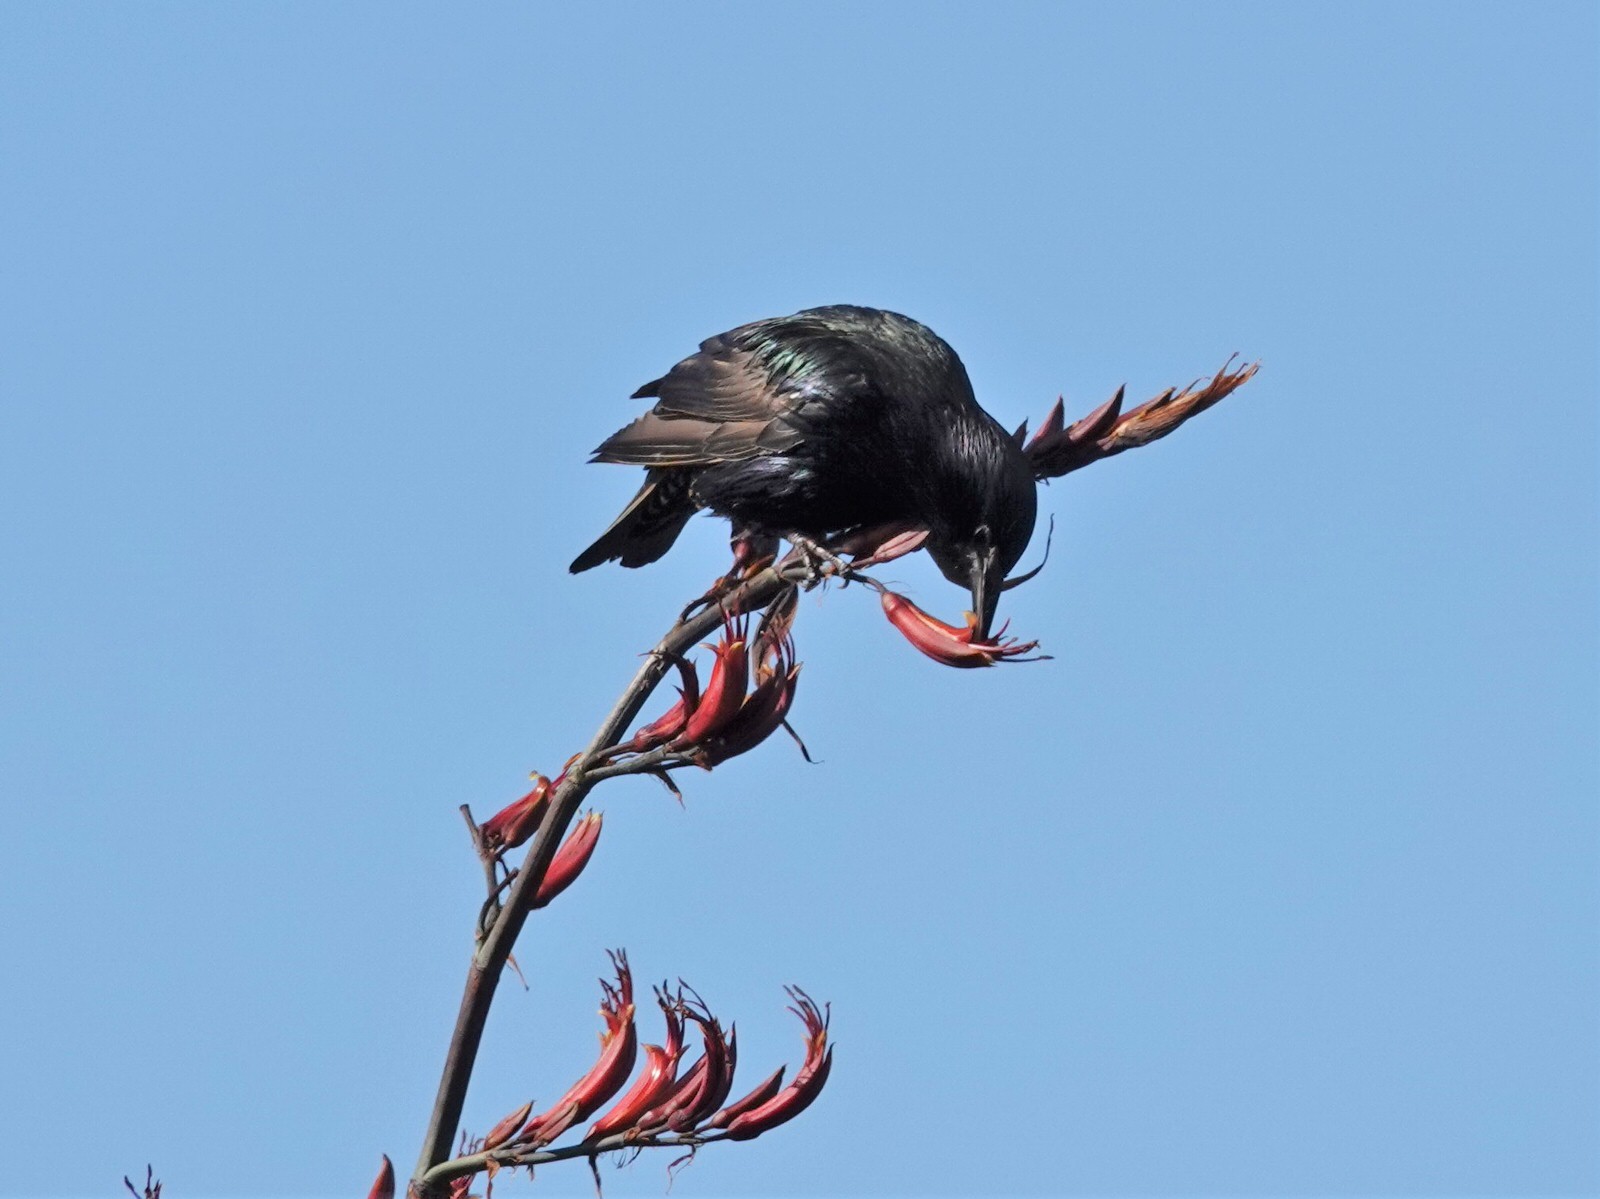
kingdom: Animalia
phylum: Chordata
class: Aves
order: Passeriformes
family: Sturnidae
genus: Sturnus
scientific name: Sturnus vulgaris
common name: Common starling
